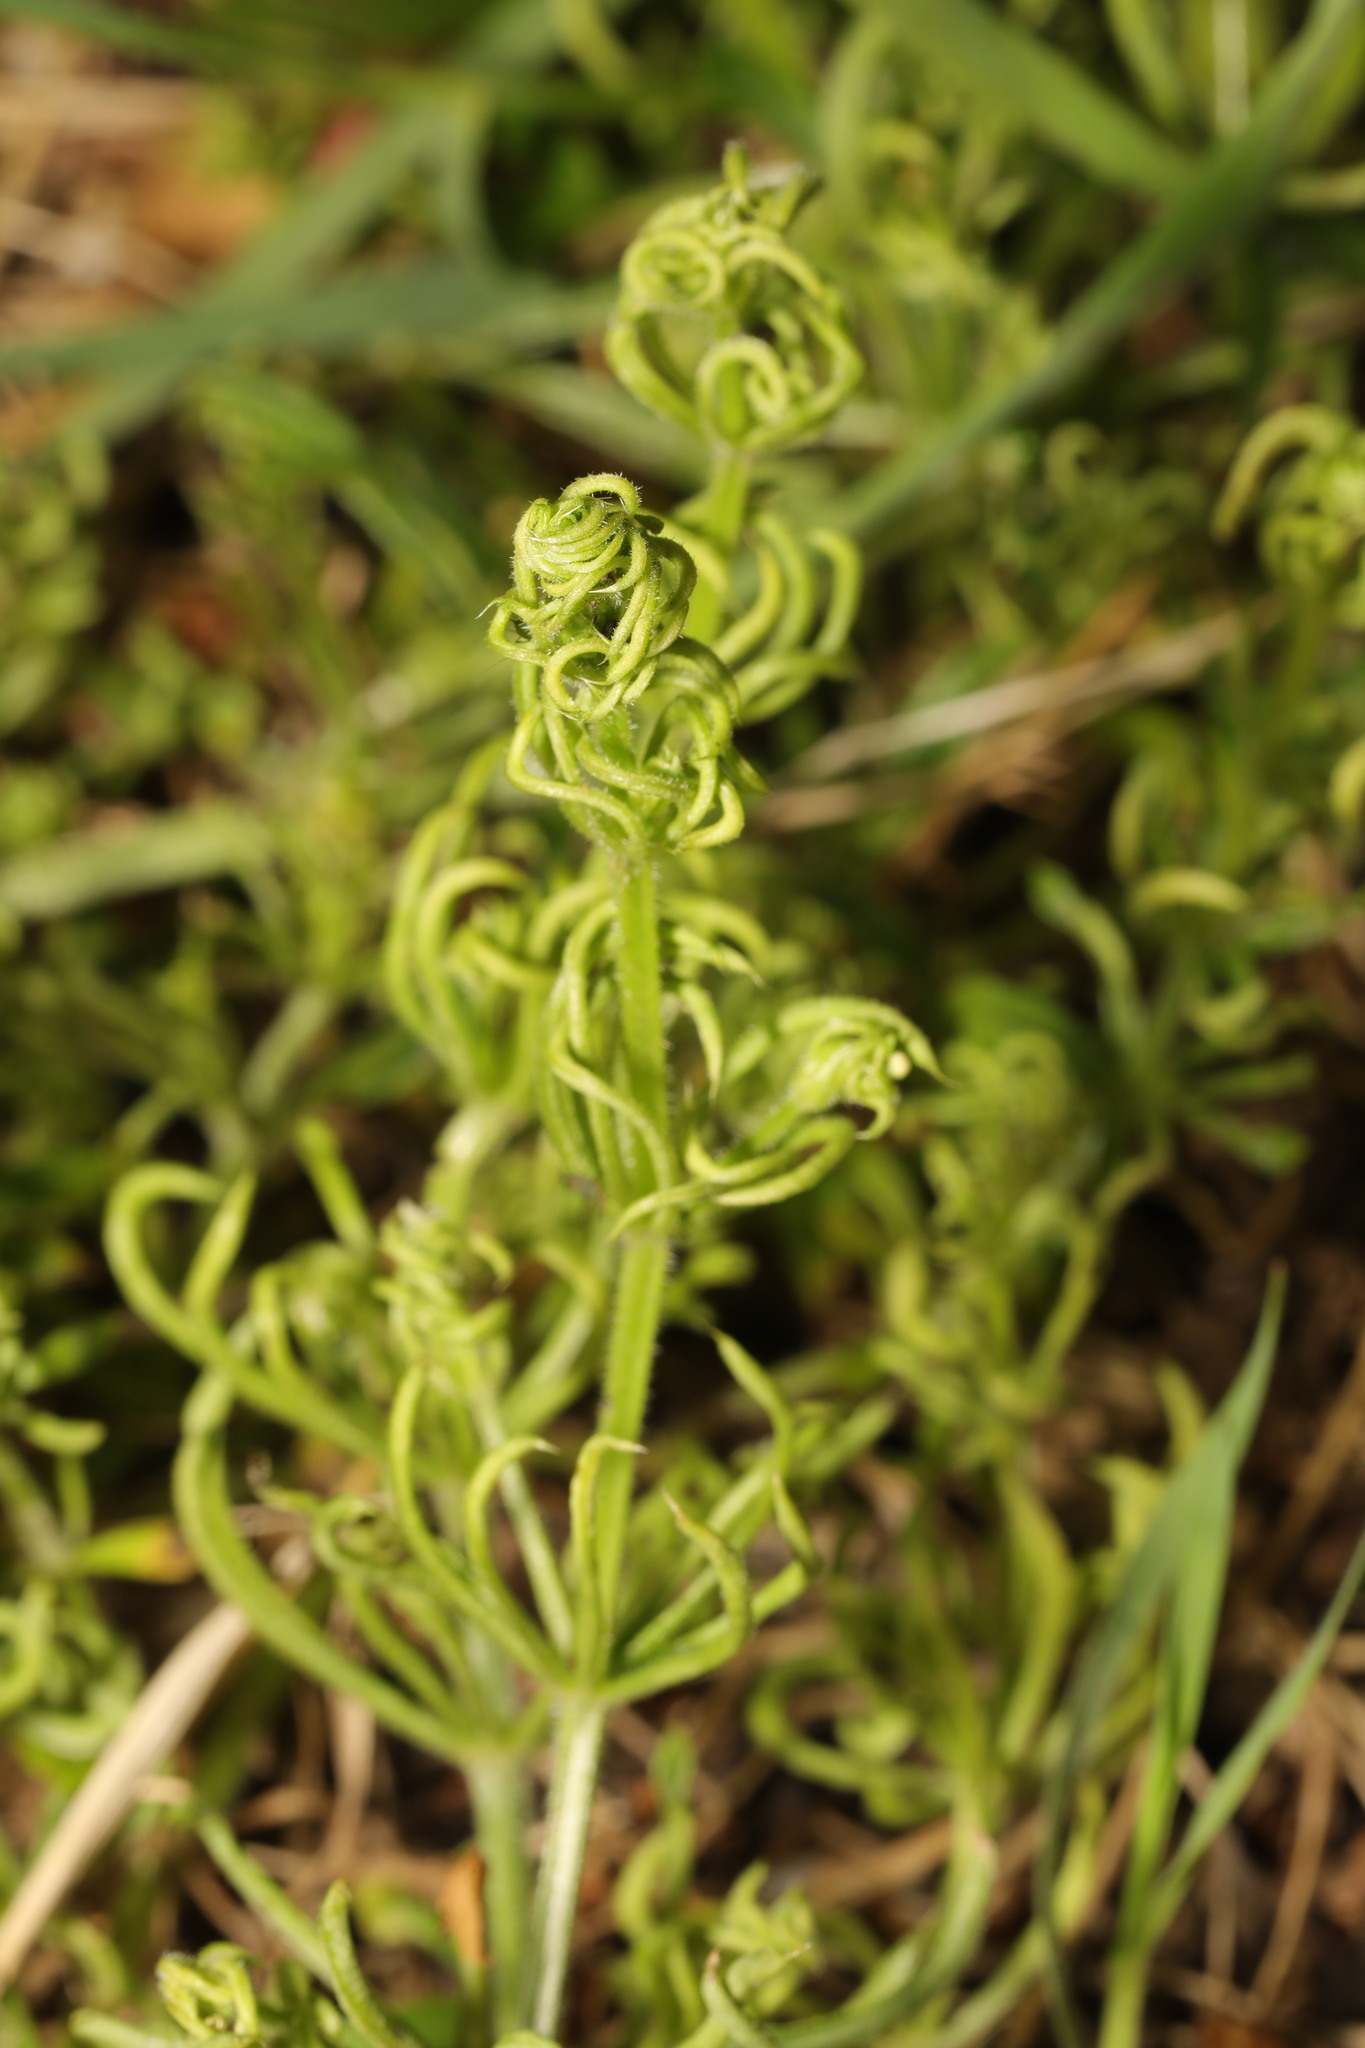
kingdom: Animalia
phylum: Arthropoda
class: Arachnida
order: Trombidiformes
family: Eriophyidae
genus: Cecidophyes
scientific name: Cecidophyes rouhollahi
